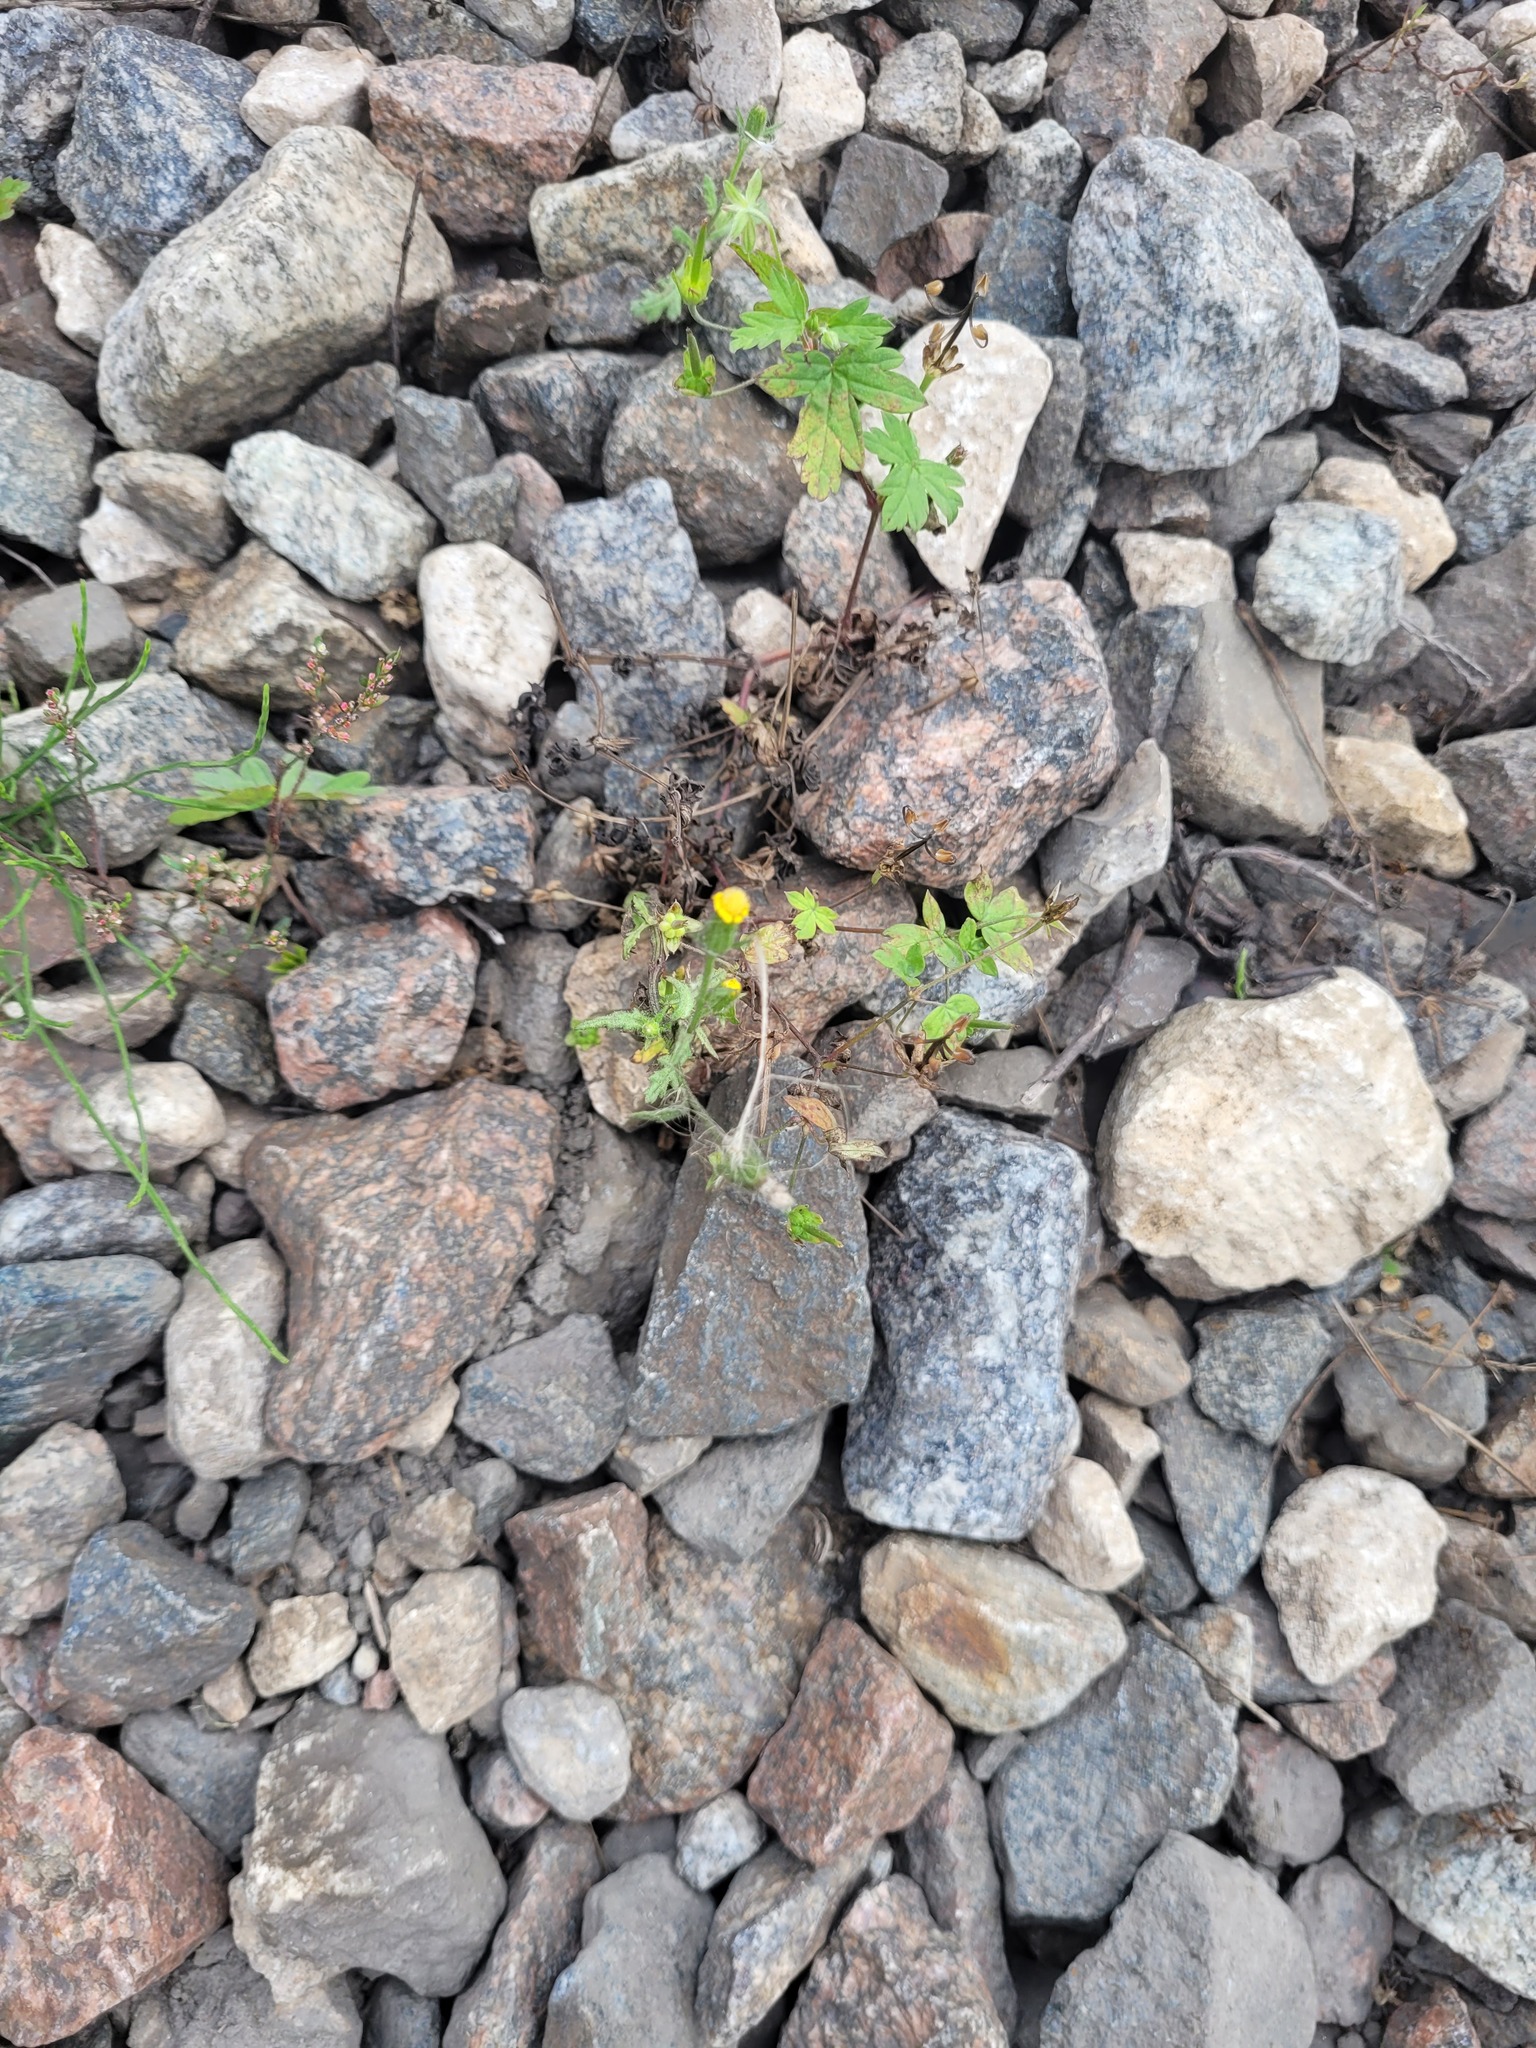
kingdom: Plantae
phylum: Tracheophyta
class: Magnoliopsida
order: Asterales
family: Asteraceae
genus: Senecio
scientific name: Senecio viscosus
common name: Sticky groundsel
